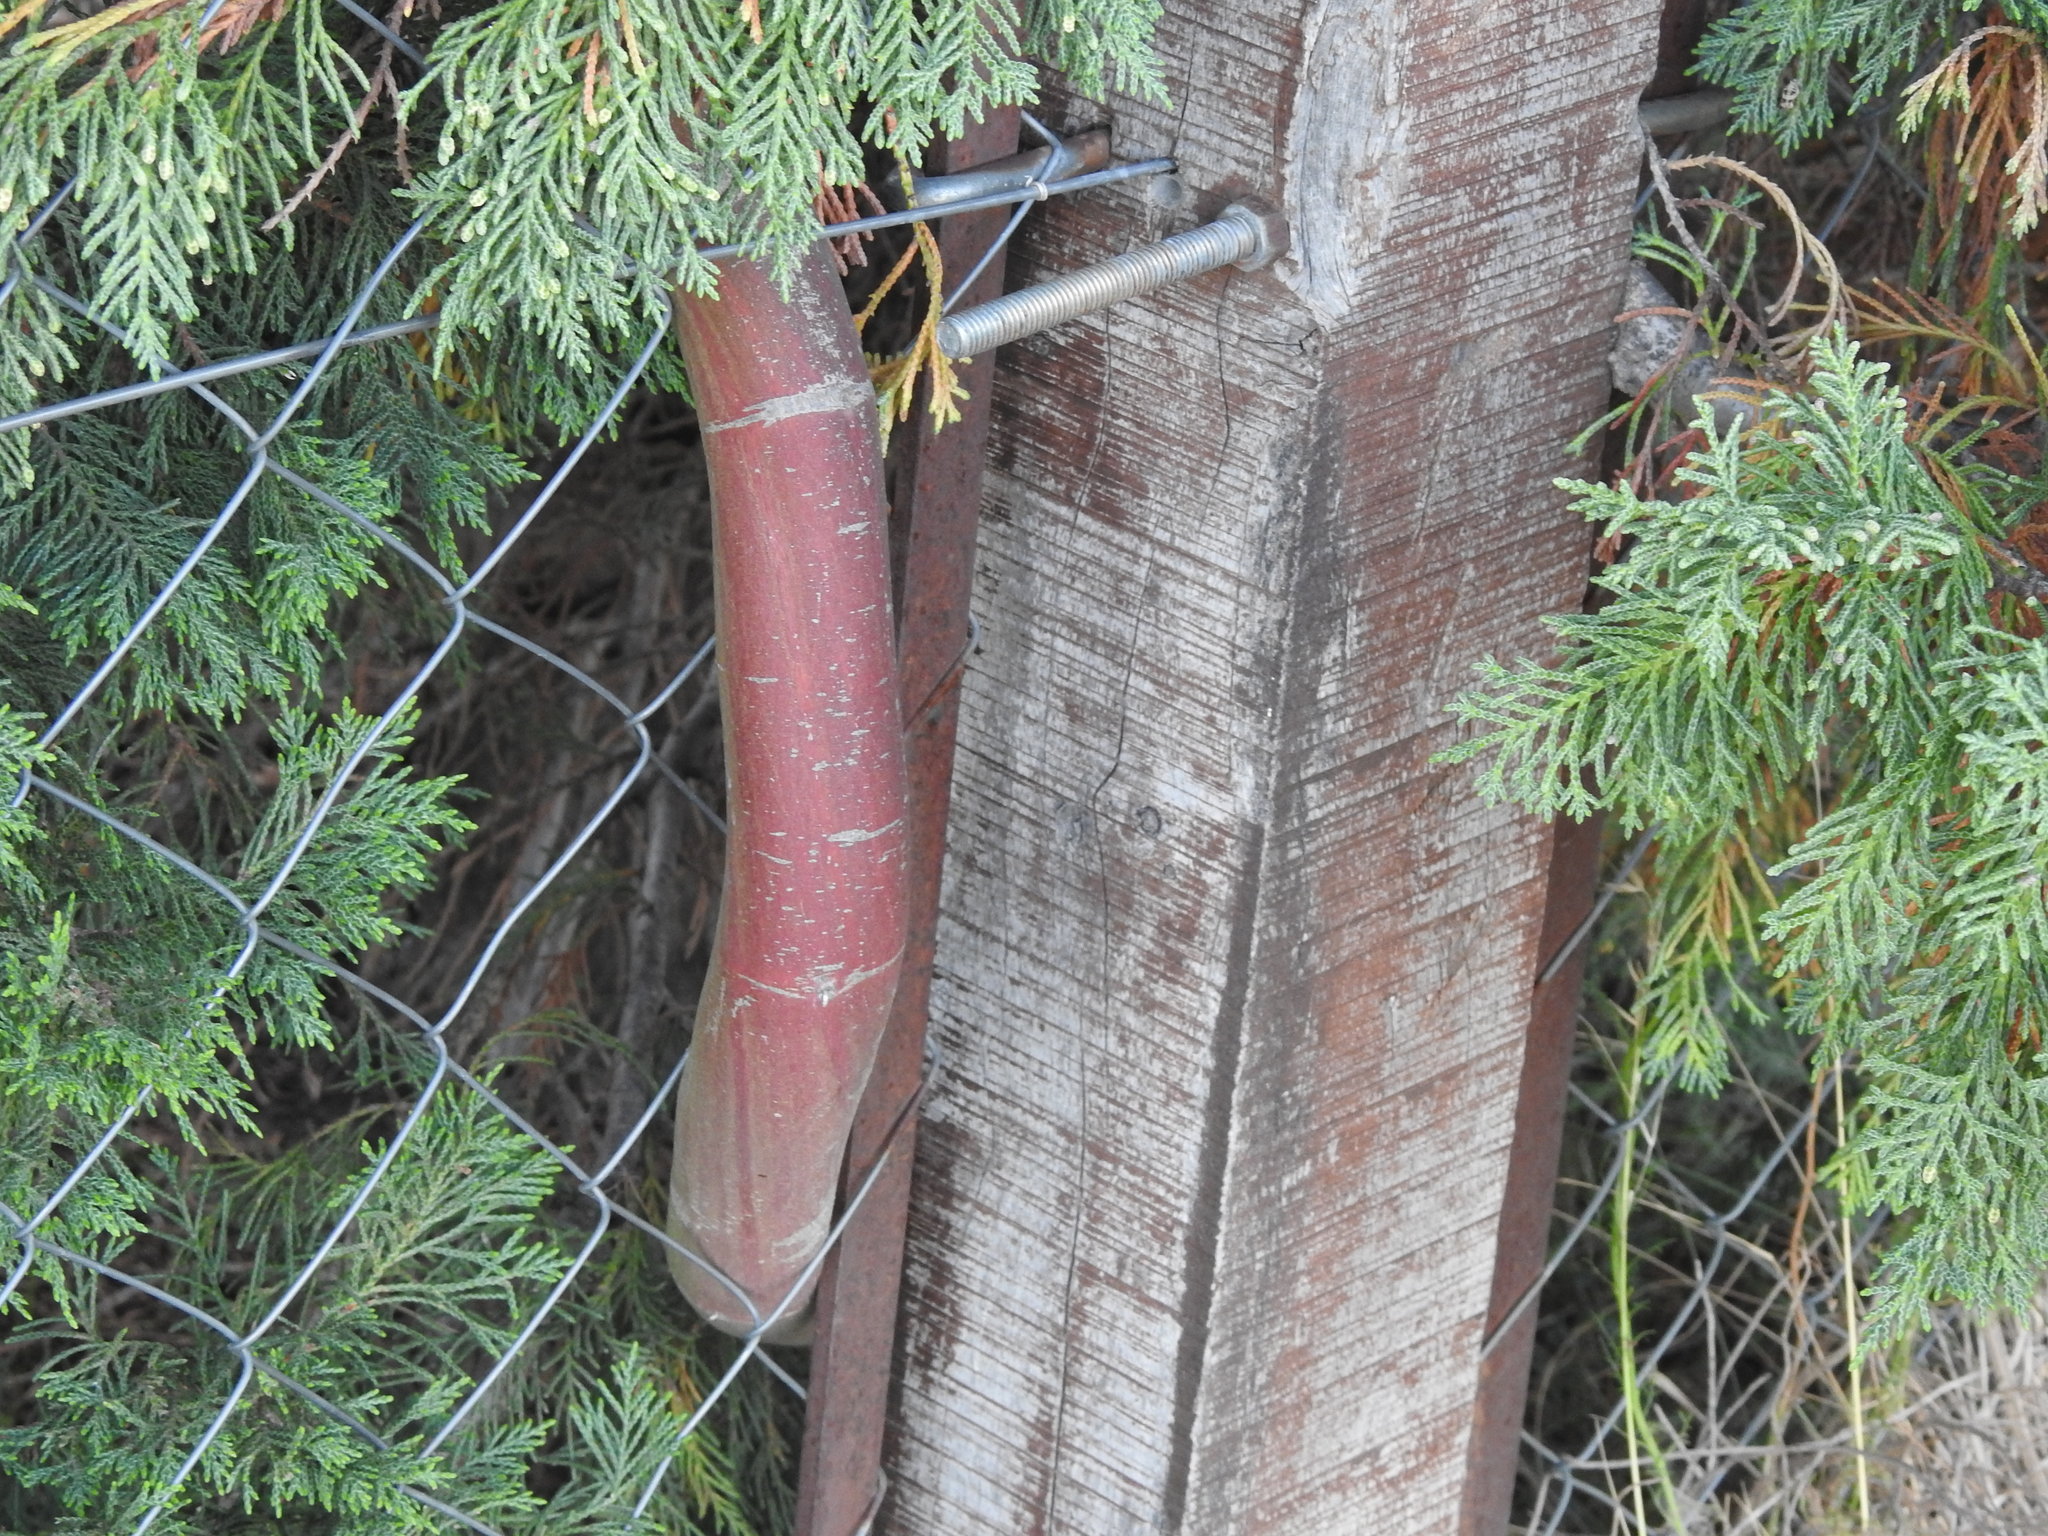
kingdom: Plantae
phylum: Tracheophyta
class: Magnoliopsida
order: Malpighiales
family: Passifloraceae
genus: Passiflora
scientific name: Passiflora caerulea
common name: Blue passionflower
